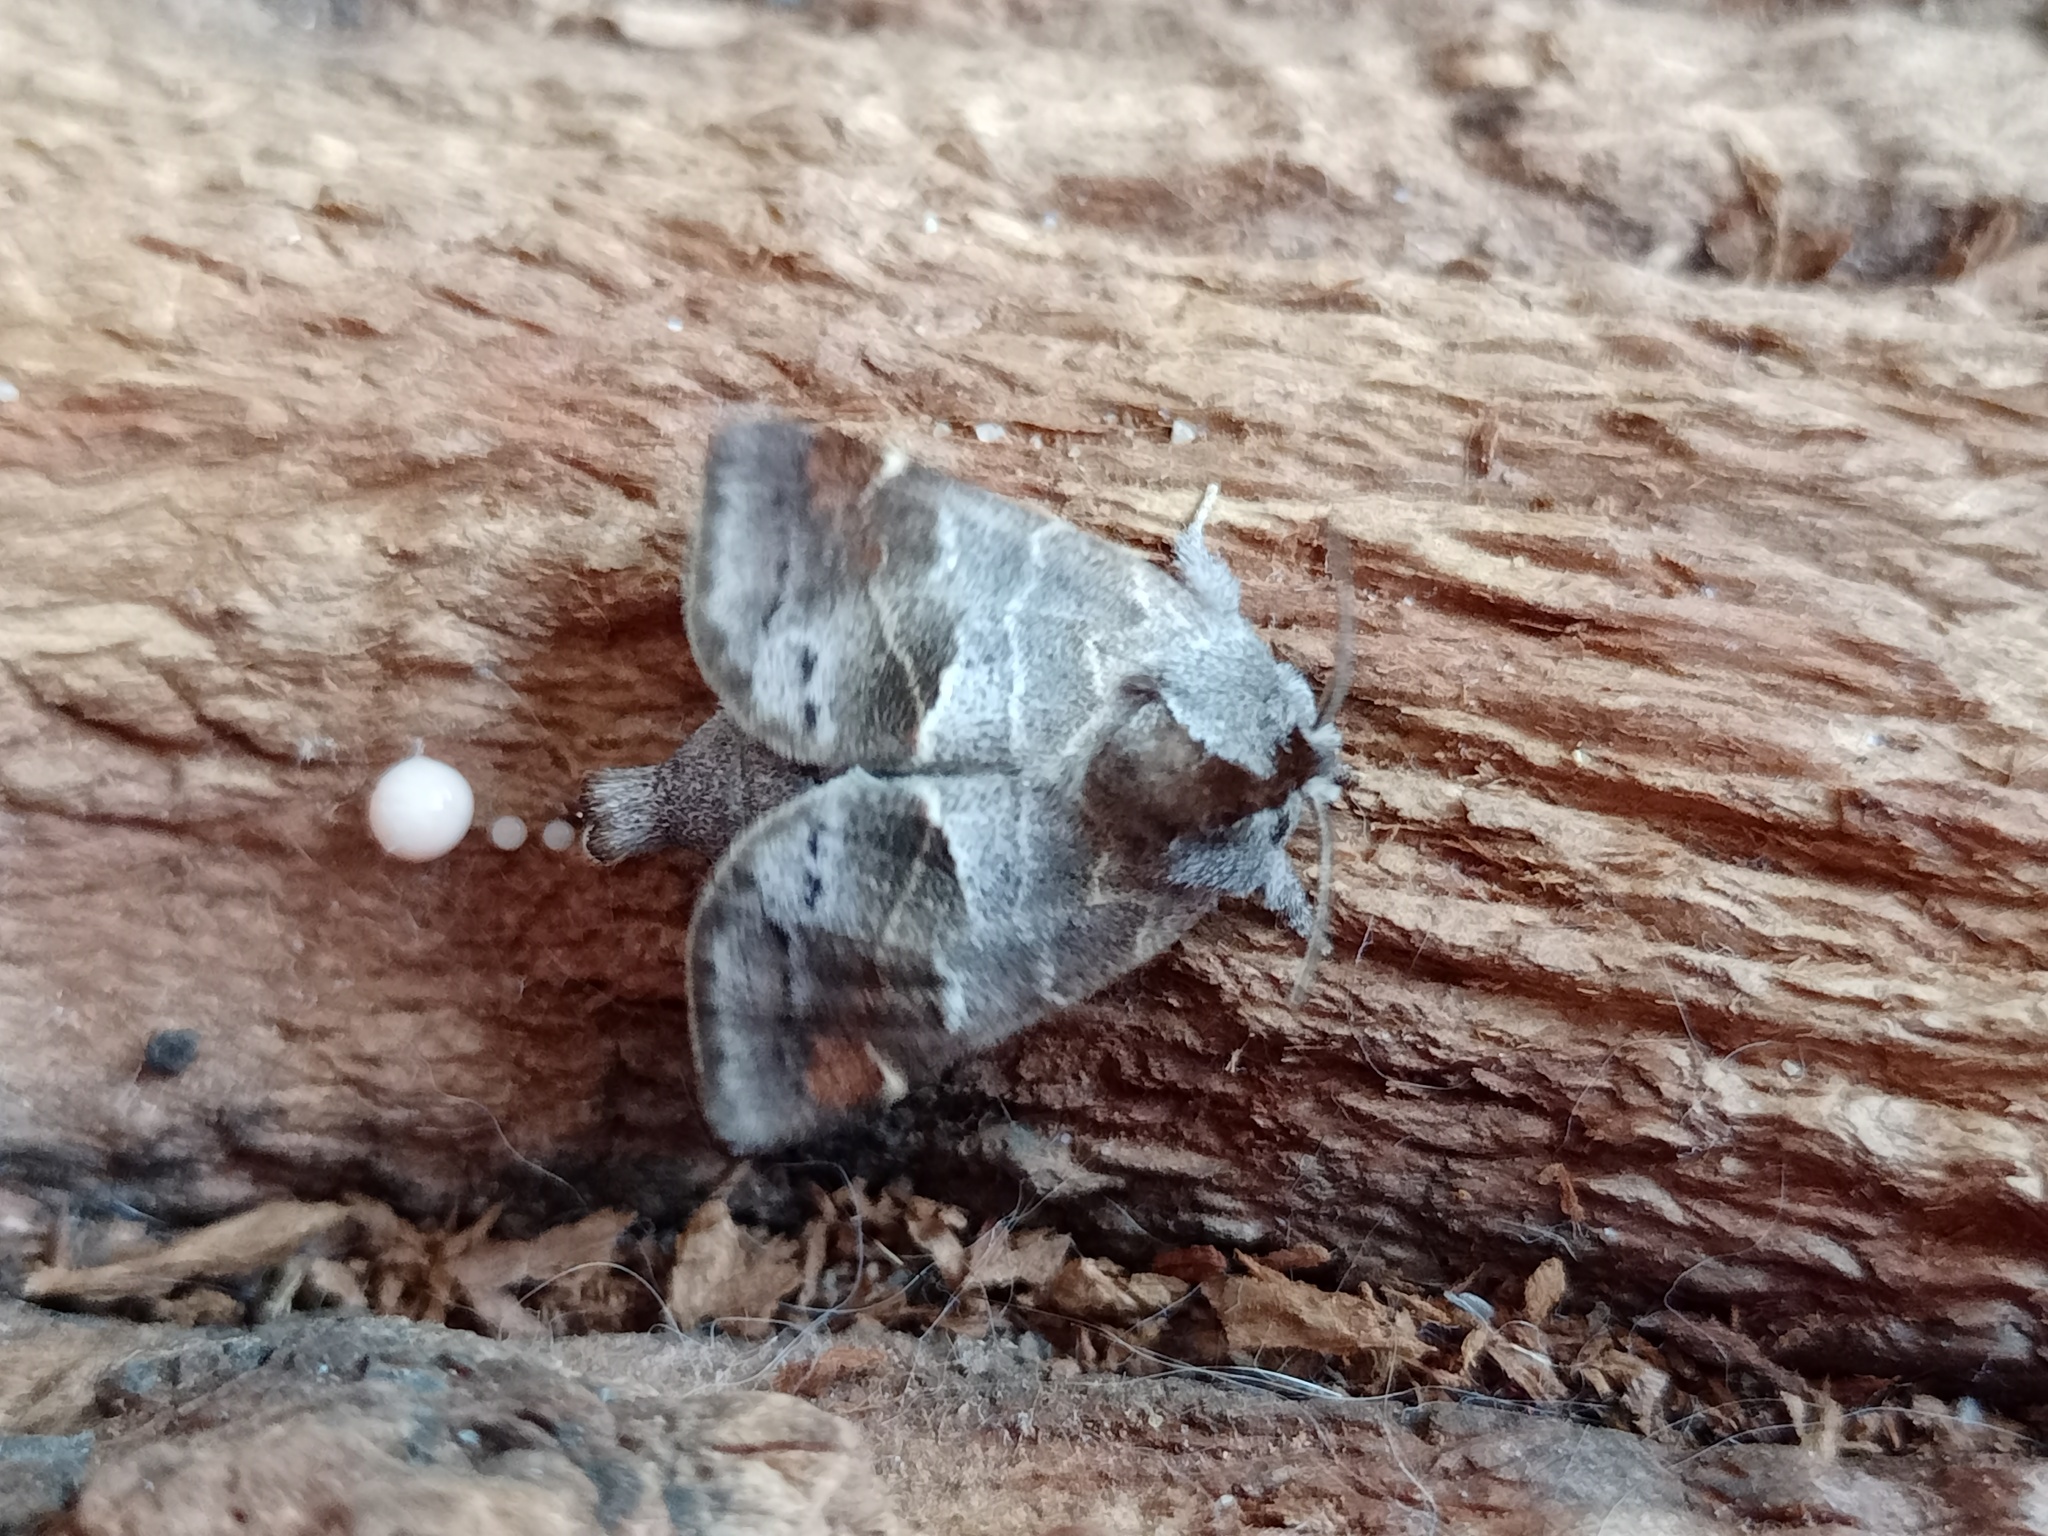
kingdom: Animalia
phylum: Arthropoda
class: Insecta
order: Lepidoptera
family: Notodontidae
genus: Clostera
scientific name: Clostera pigra
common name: Small chocolate-tip
